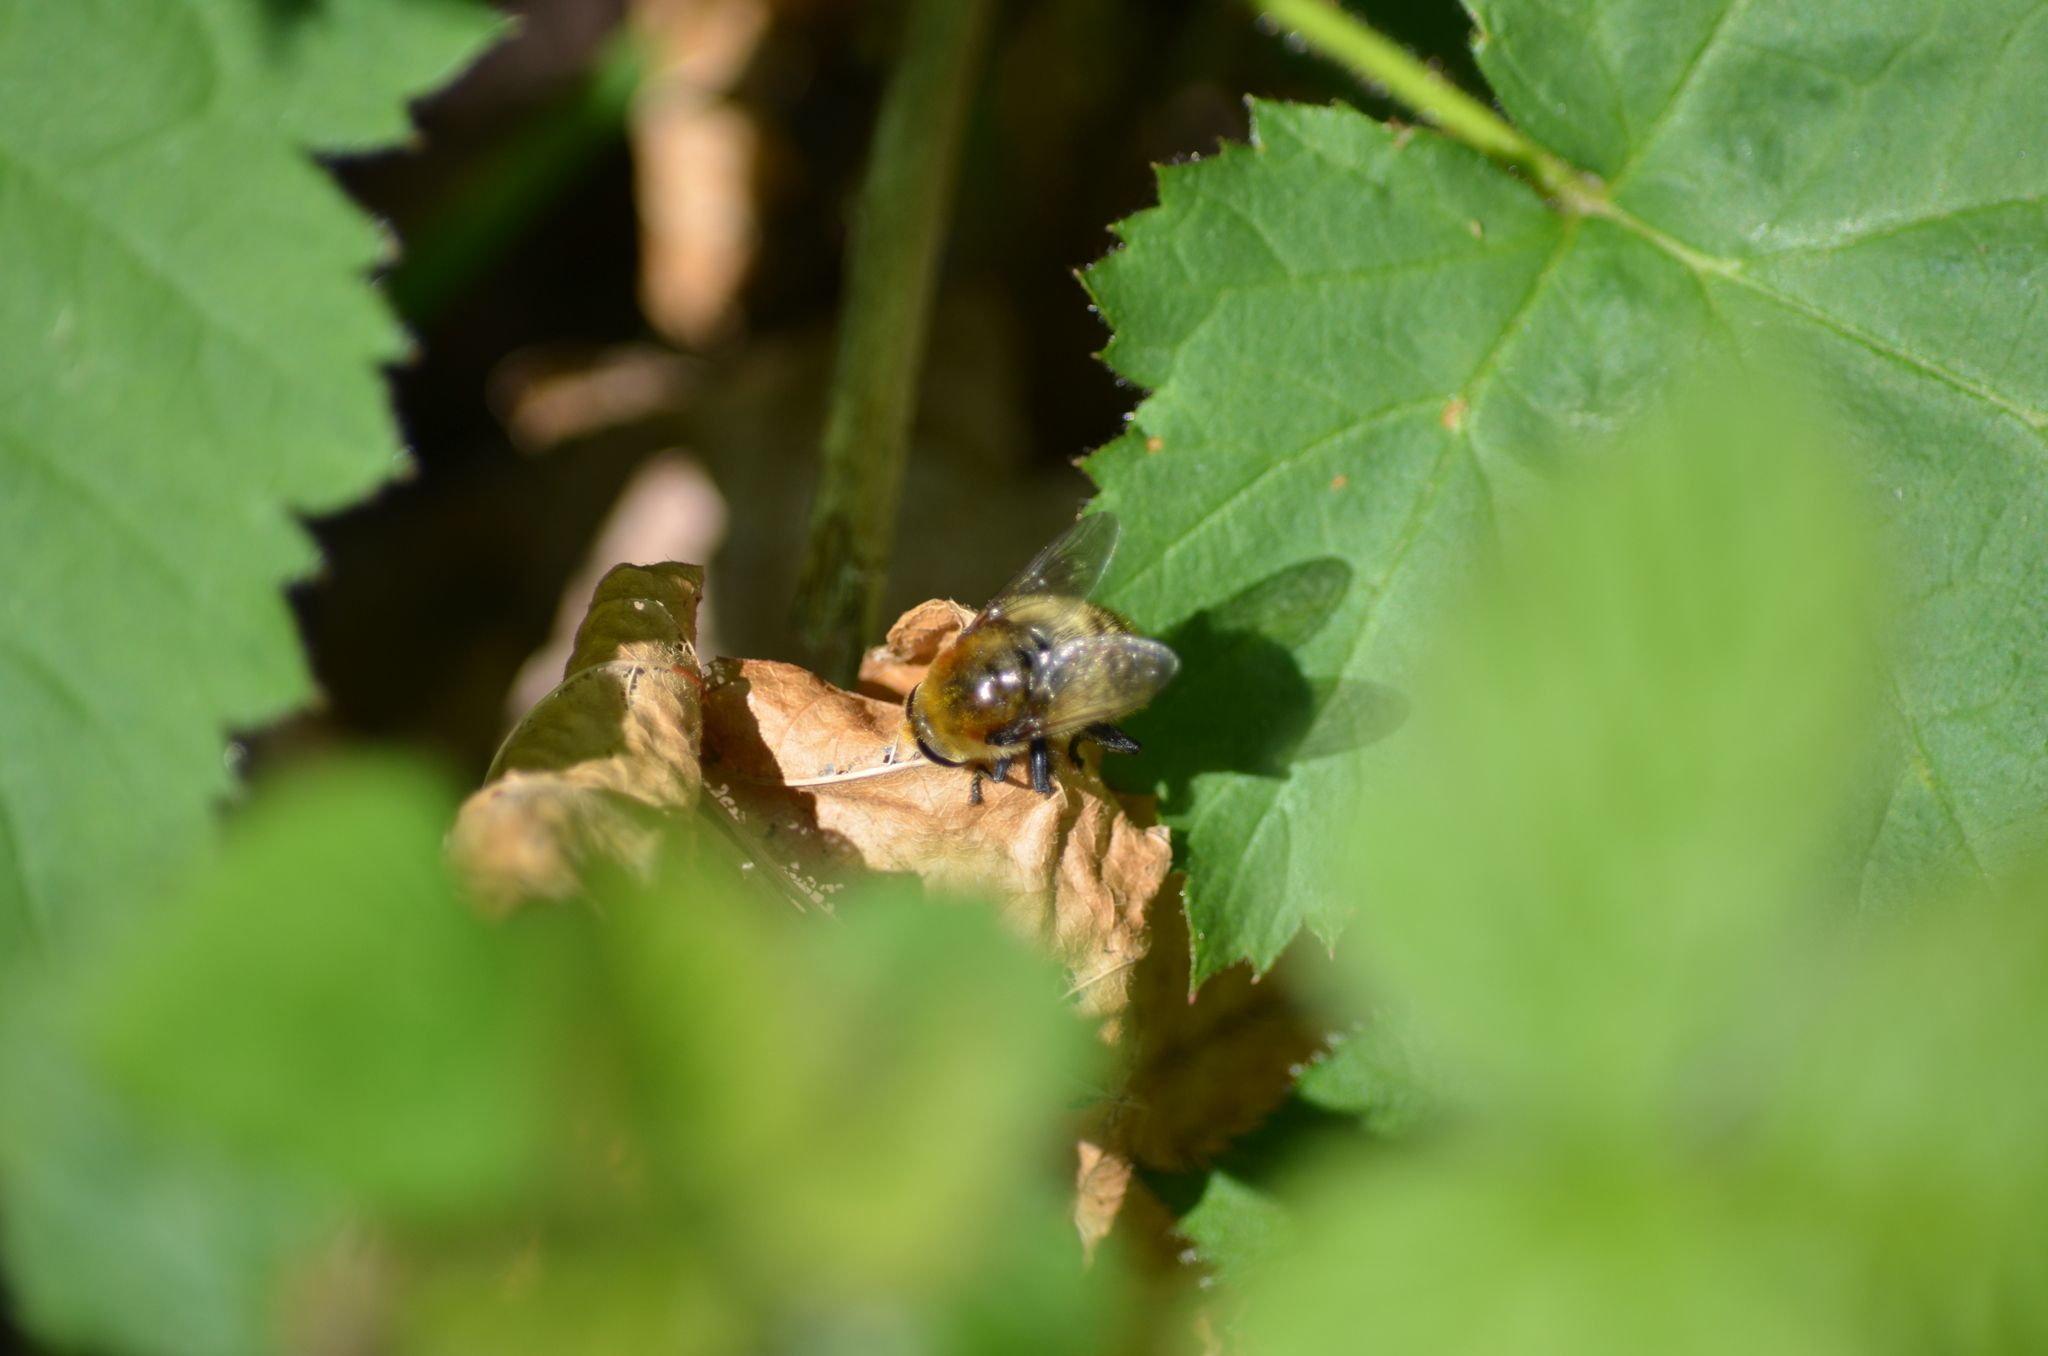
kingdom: Animalia
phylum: Arthropoda
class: Insecta
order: Diptera
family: Syrphidae
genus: Merodon
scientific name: Merodon equestris
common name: Greater bulb-fly
